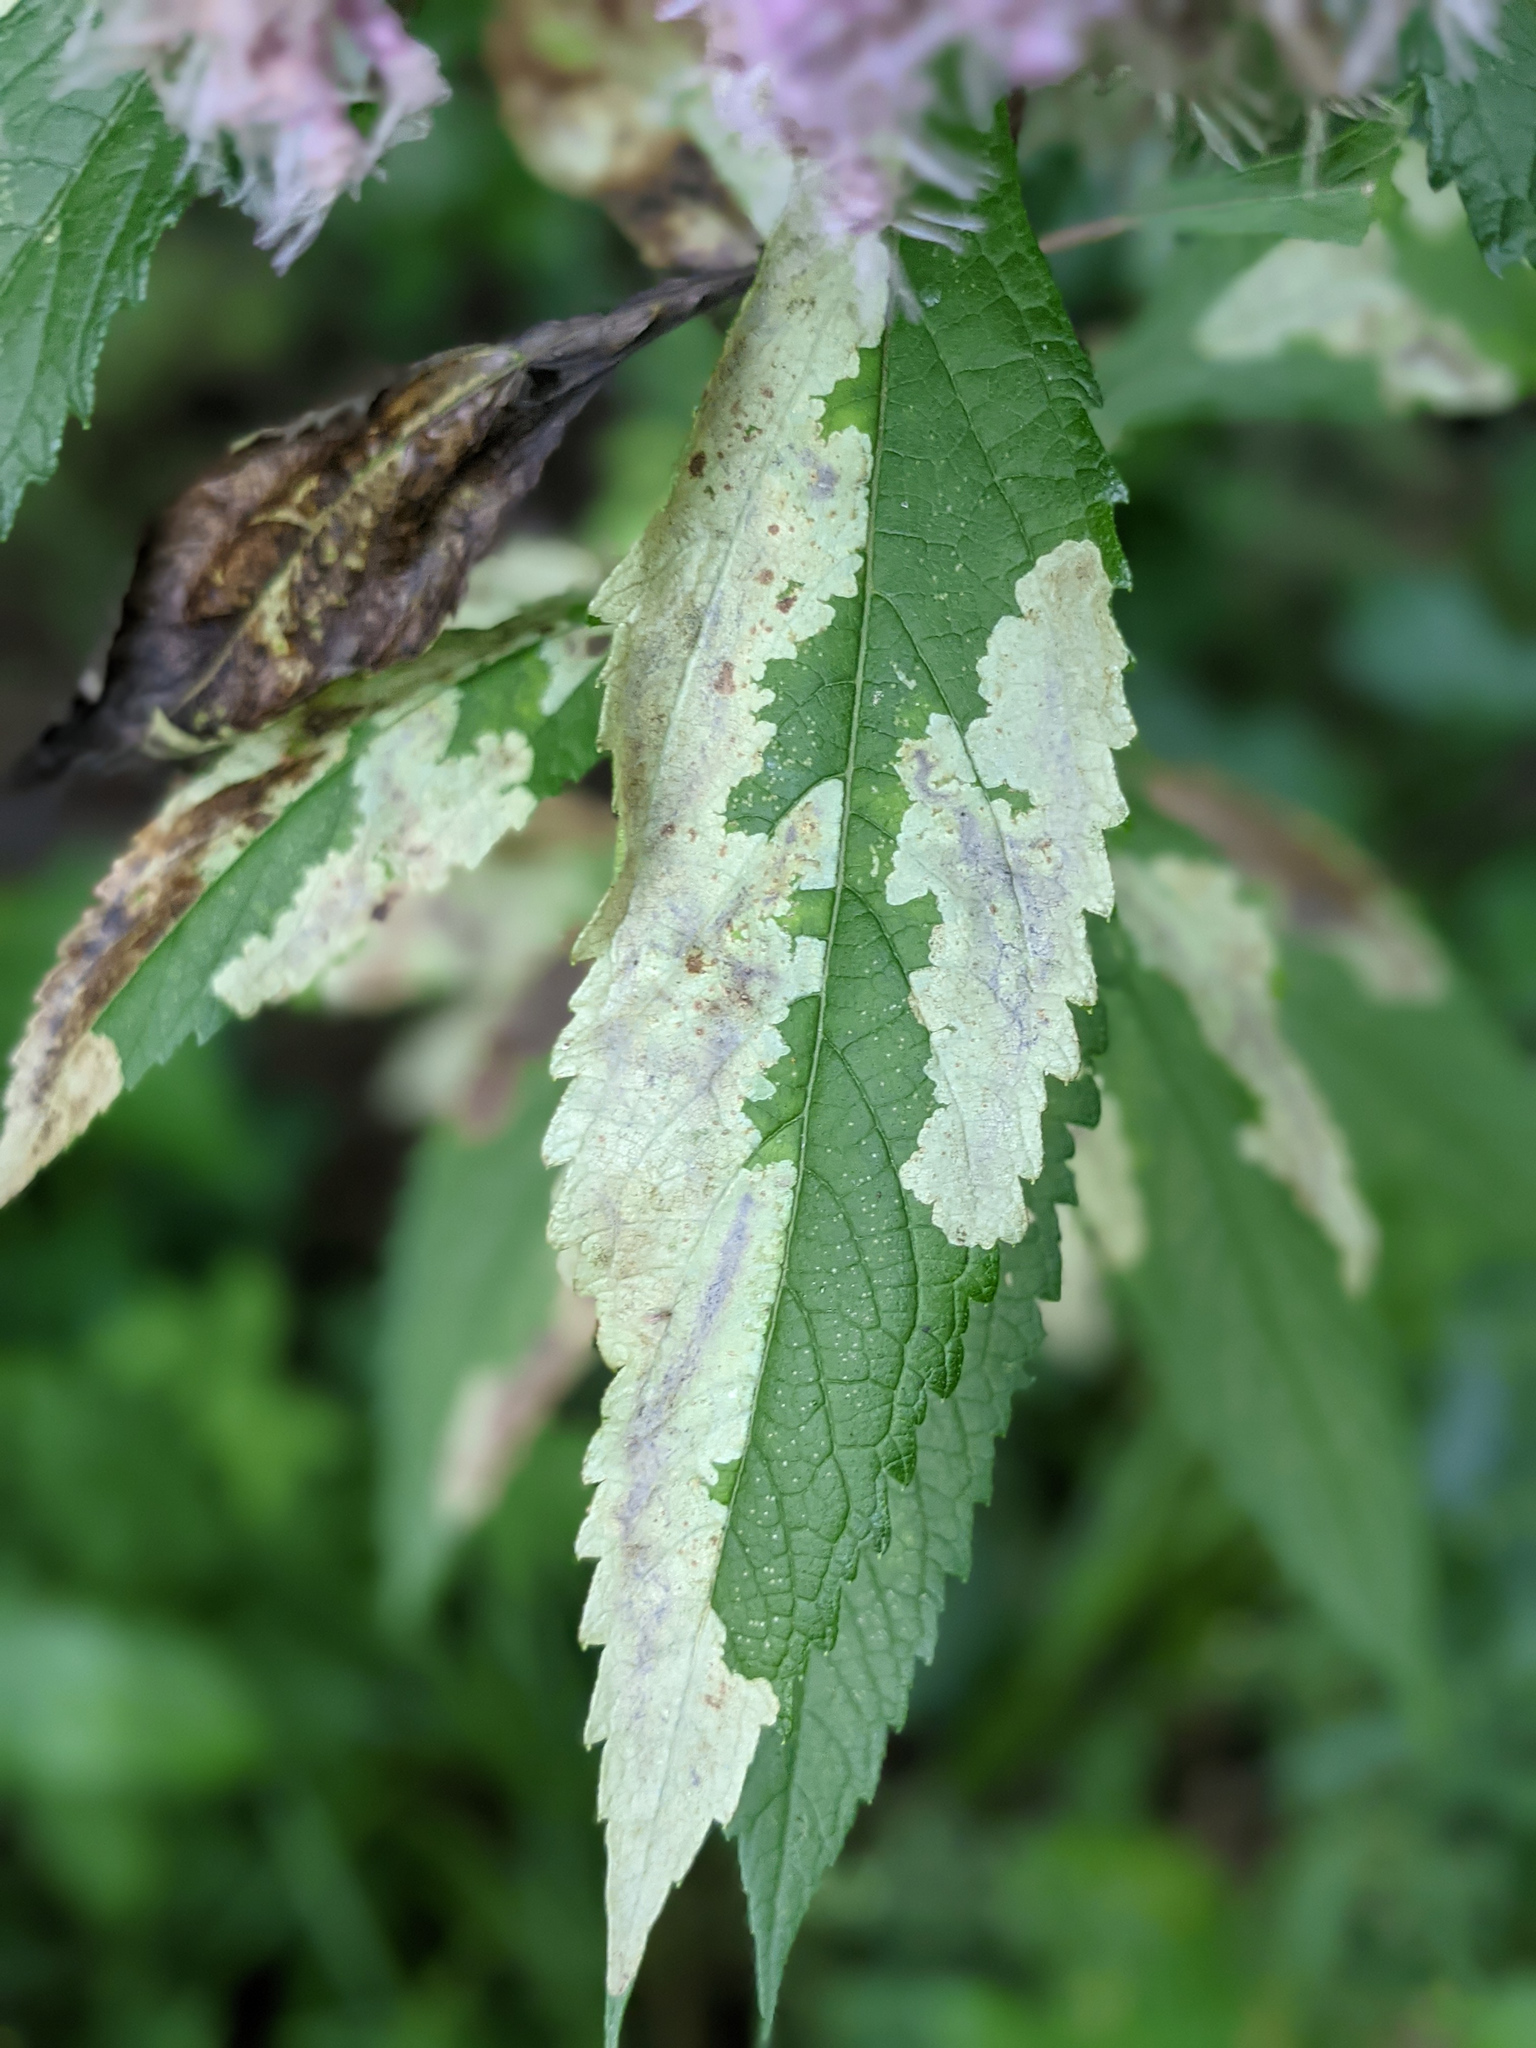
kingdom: Animalia
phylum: Arthropoda
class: Insecta
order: Diptera
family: Agromyzidae
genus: Calycomyza
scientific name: Calycomyza flavinotum
